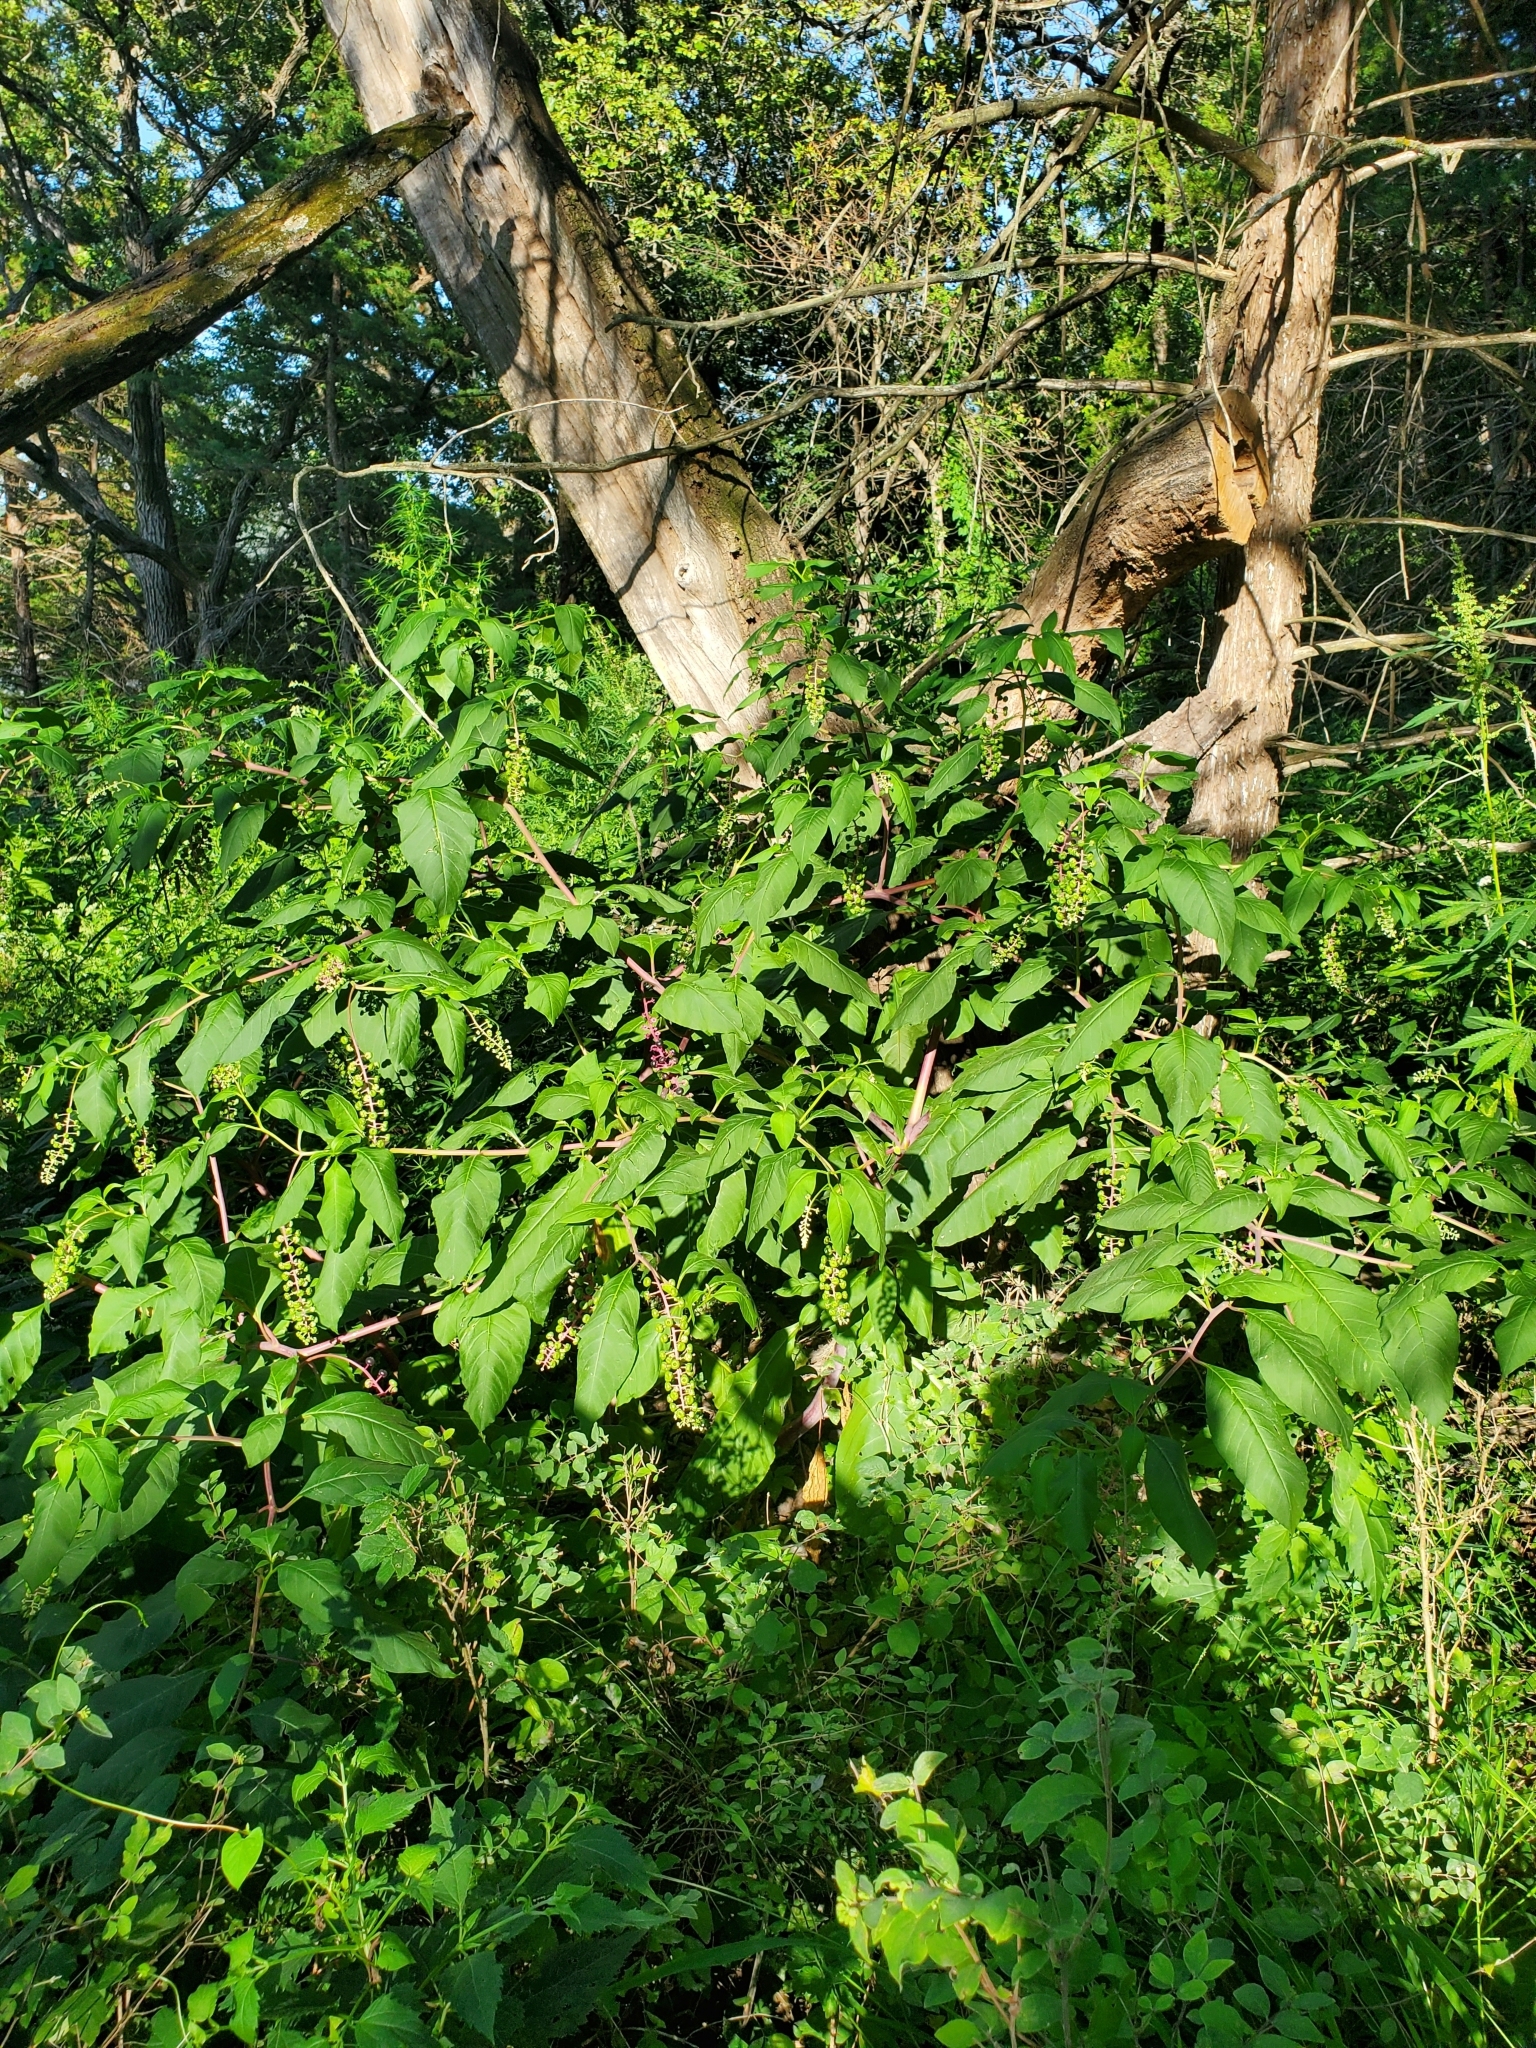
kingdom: Plantae
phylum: Tracheophyta
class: Magnoliopsida
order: Caryophyllales
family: Phytolaccaceae
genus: Phytolacca
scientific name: Phytolacca americana
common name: American pokeweed
